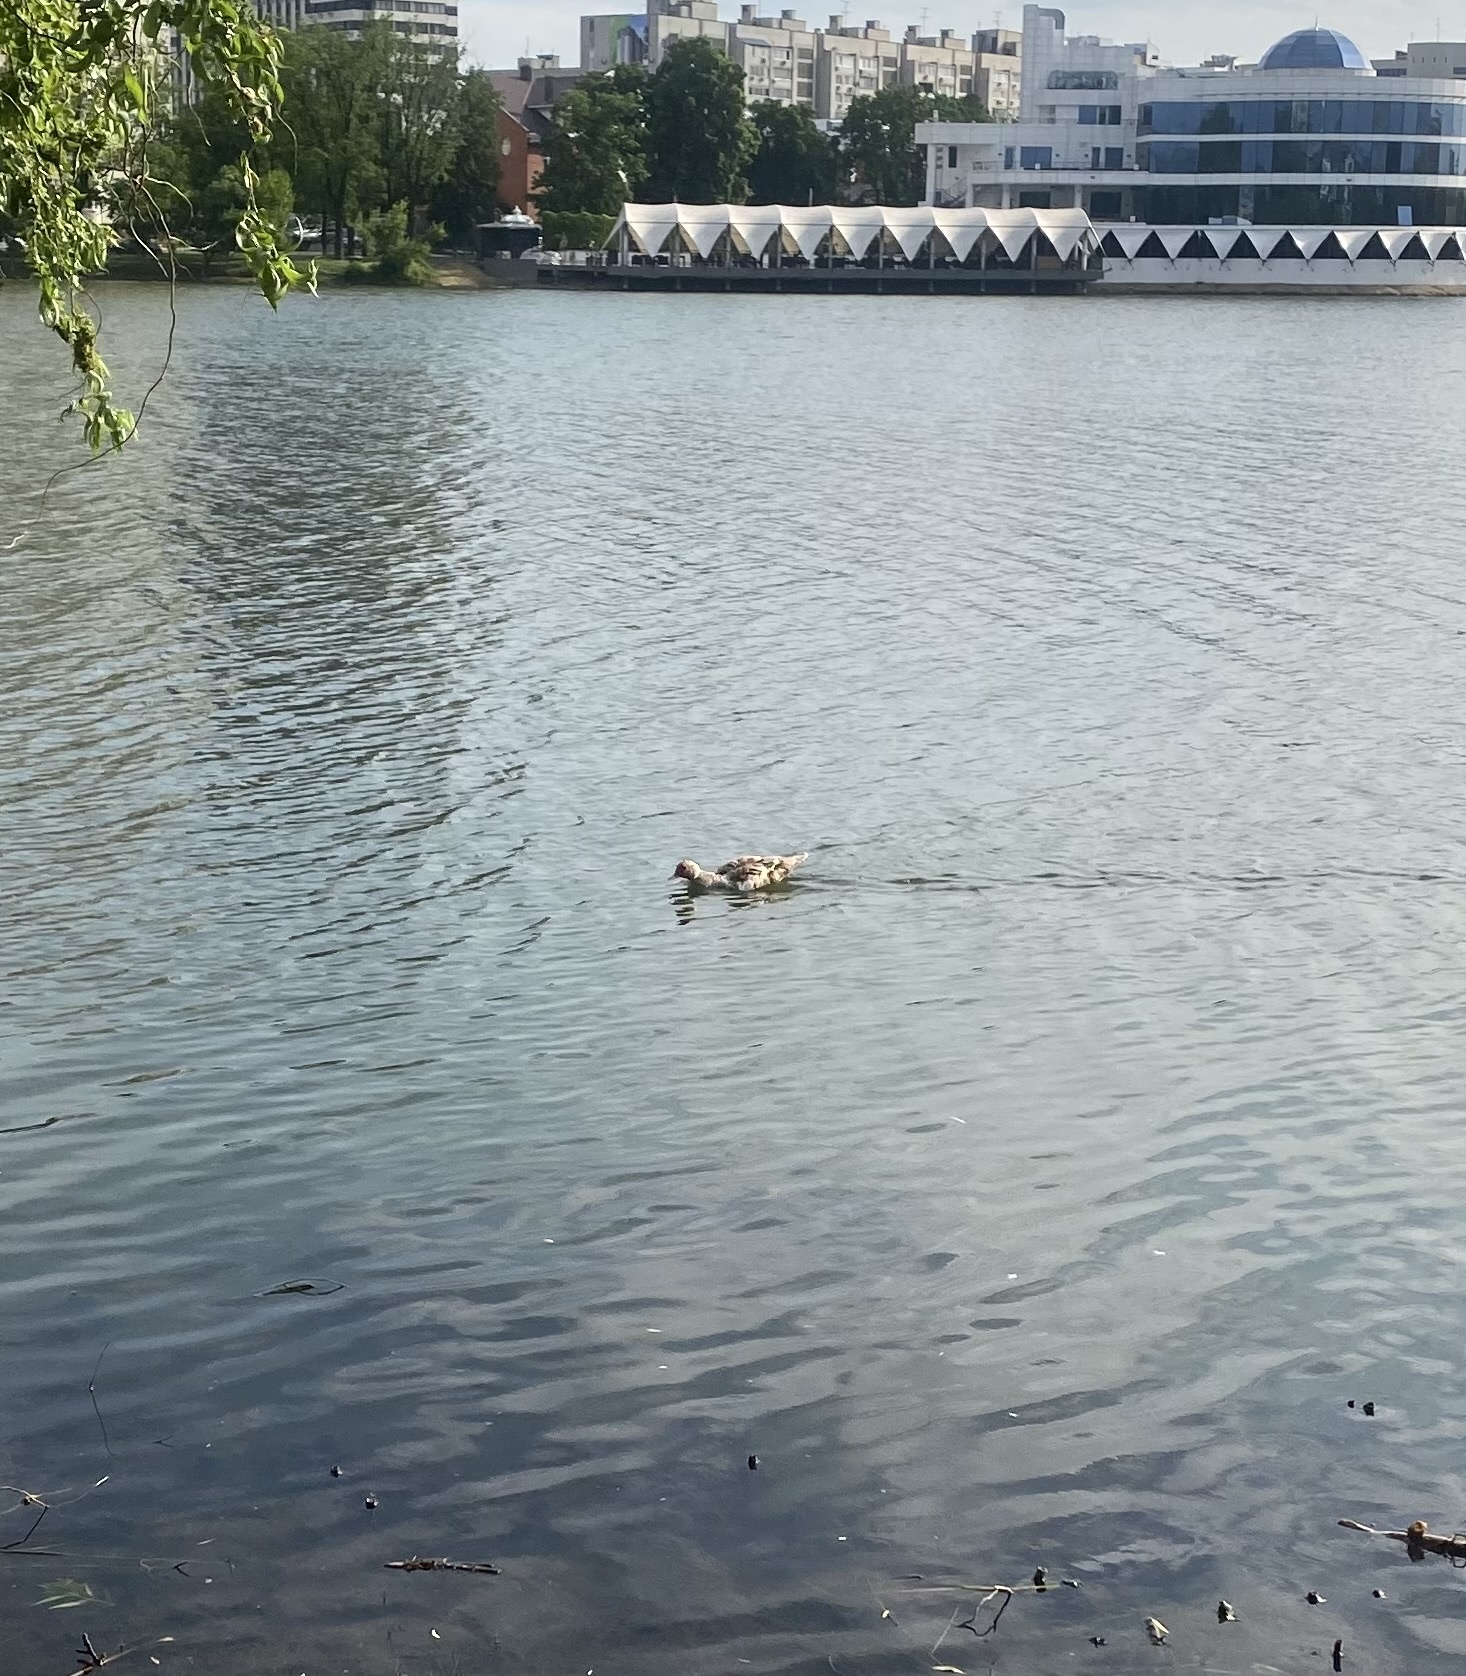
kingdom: Animalia
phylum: Chordata
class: Aves
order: Anseriformes
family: Anatidae
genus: Cairina
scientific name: Cairina moschata
